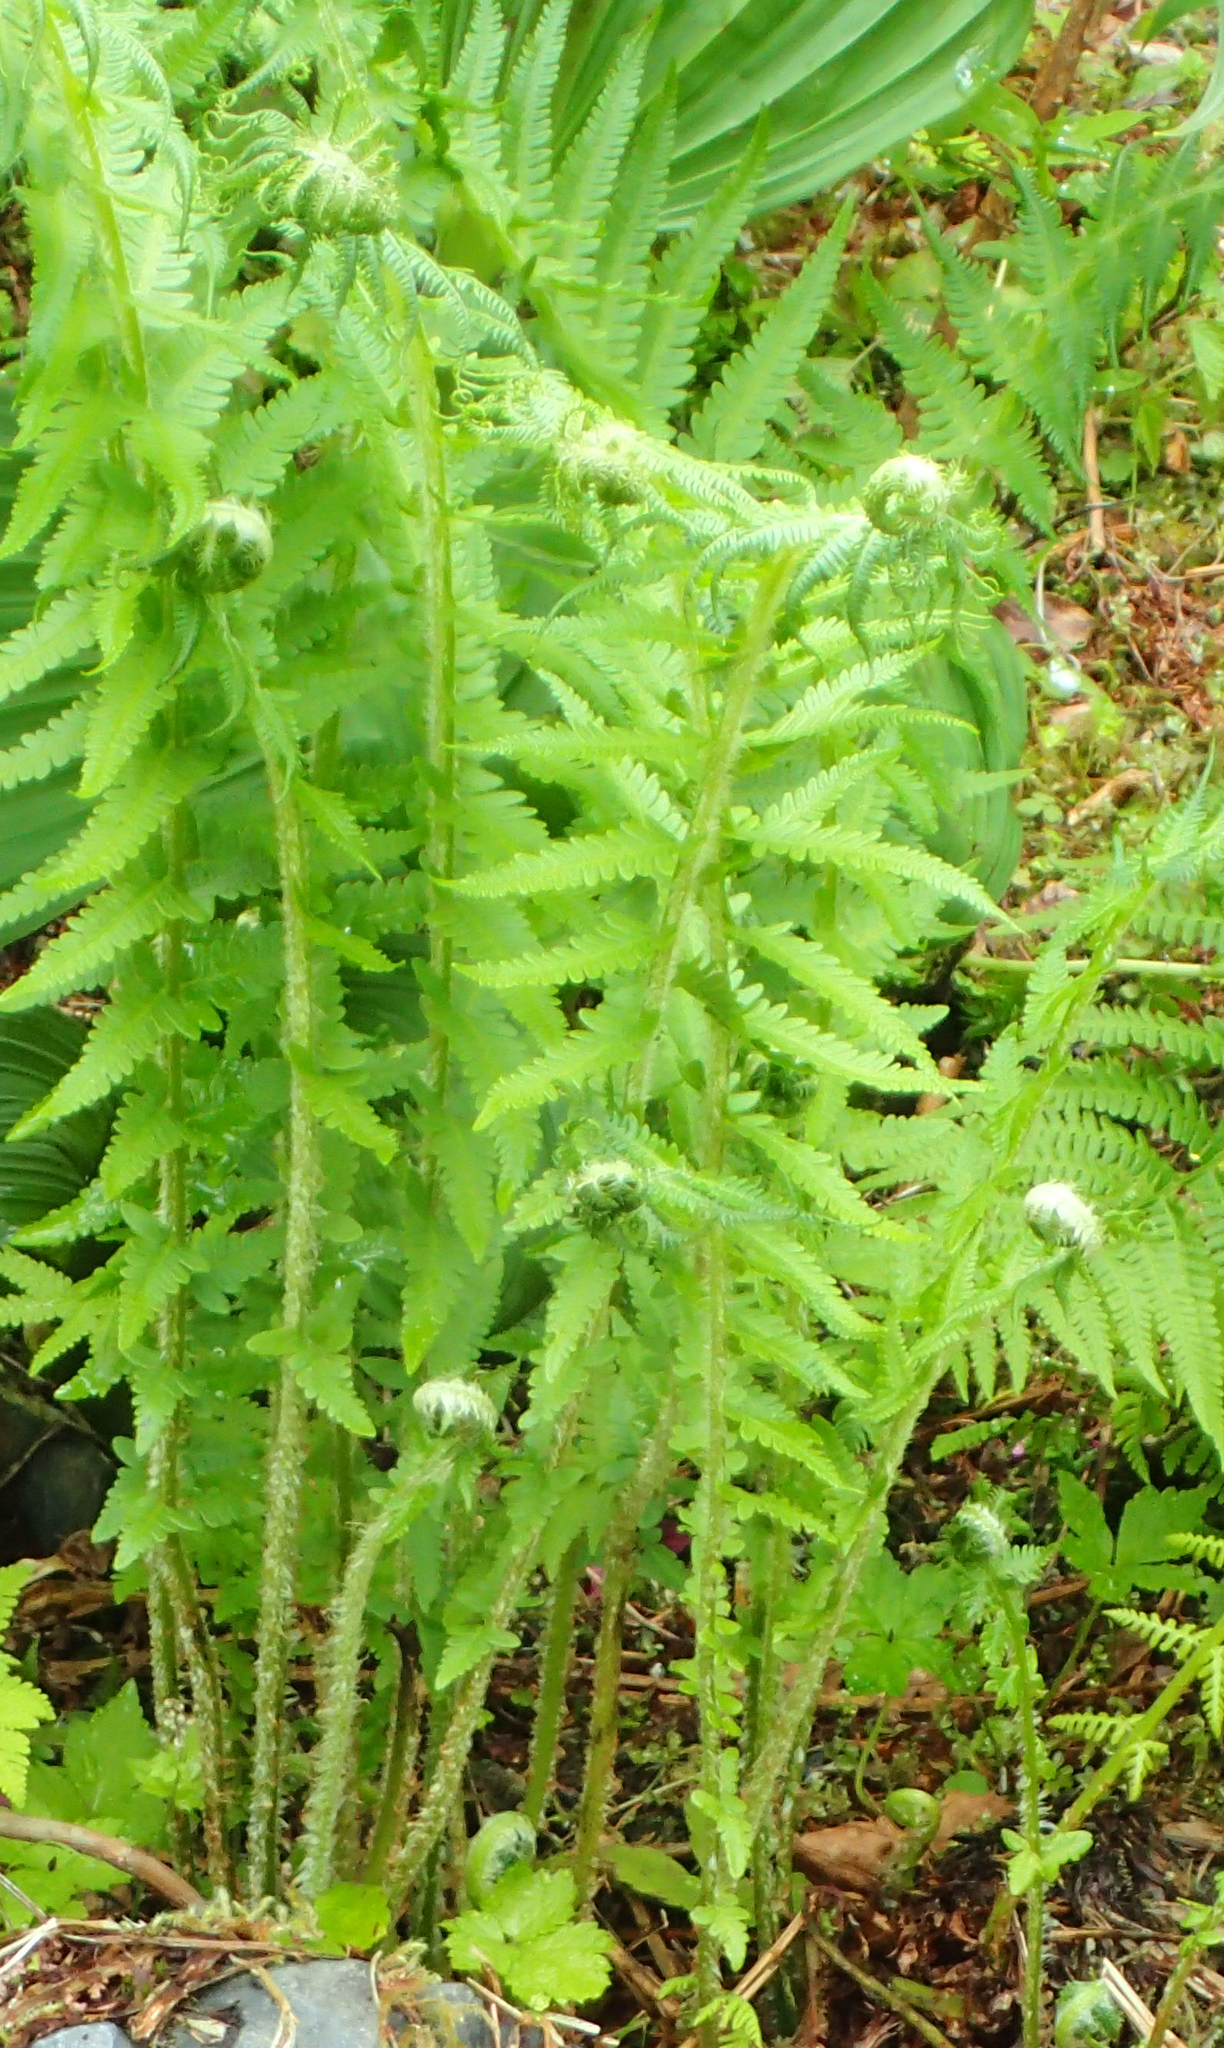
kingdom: Plantae
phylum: Tracheophyta
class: Polypodiopsida
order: Polypodiales
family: Thelypteridaceae
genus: Oreopteris
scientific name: Oreopteris quelpartensis
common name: Mountain fern
